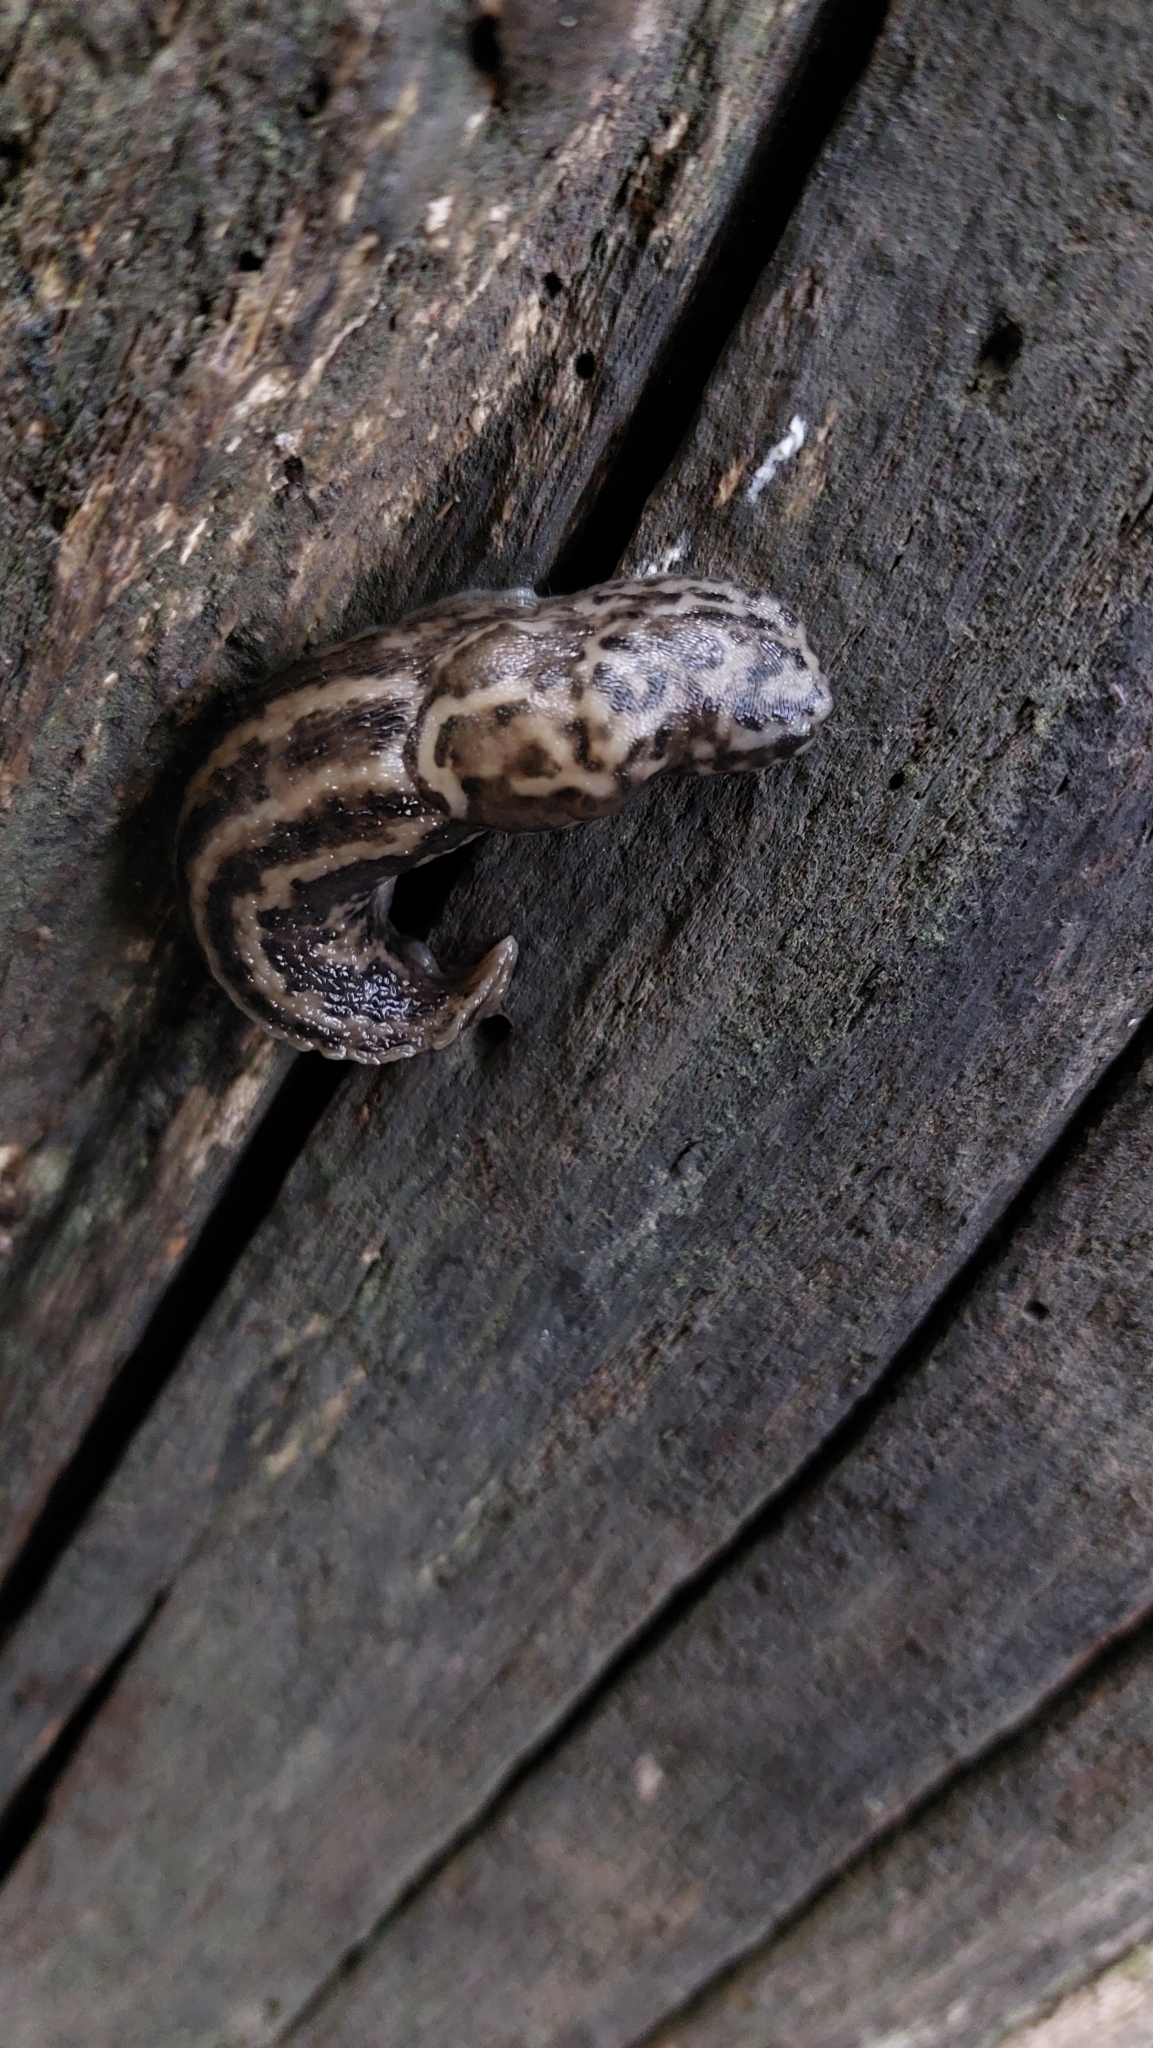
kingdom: Animalia
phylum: Mollusca
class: Gastropoda
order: Stylommatophora
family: Limacidae
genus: Limax
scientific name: Limax maximus
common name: Great grey slug
